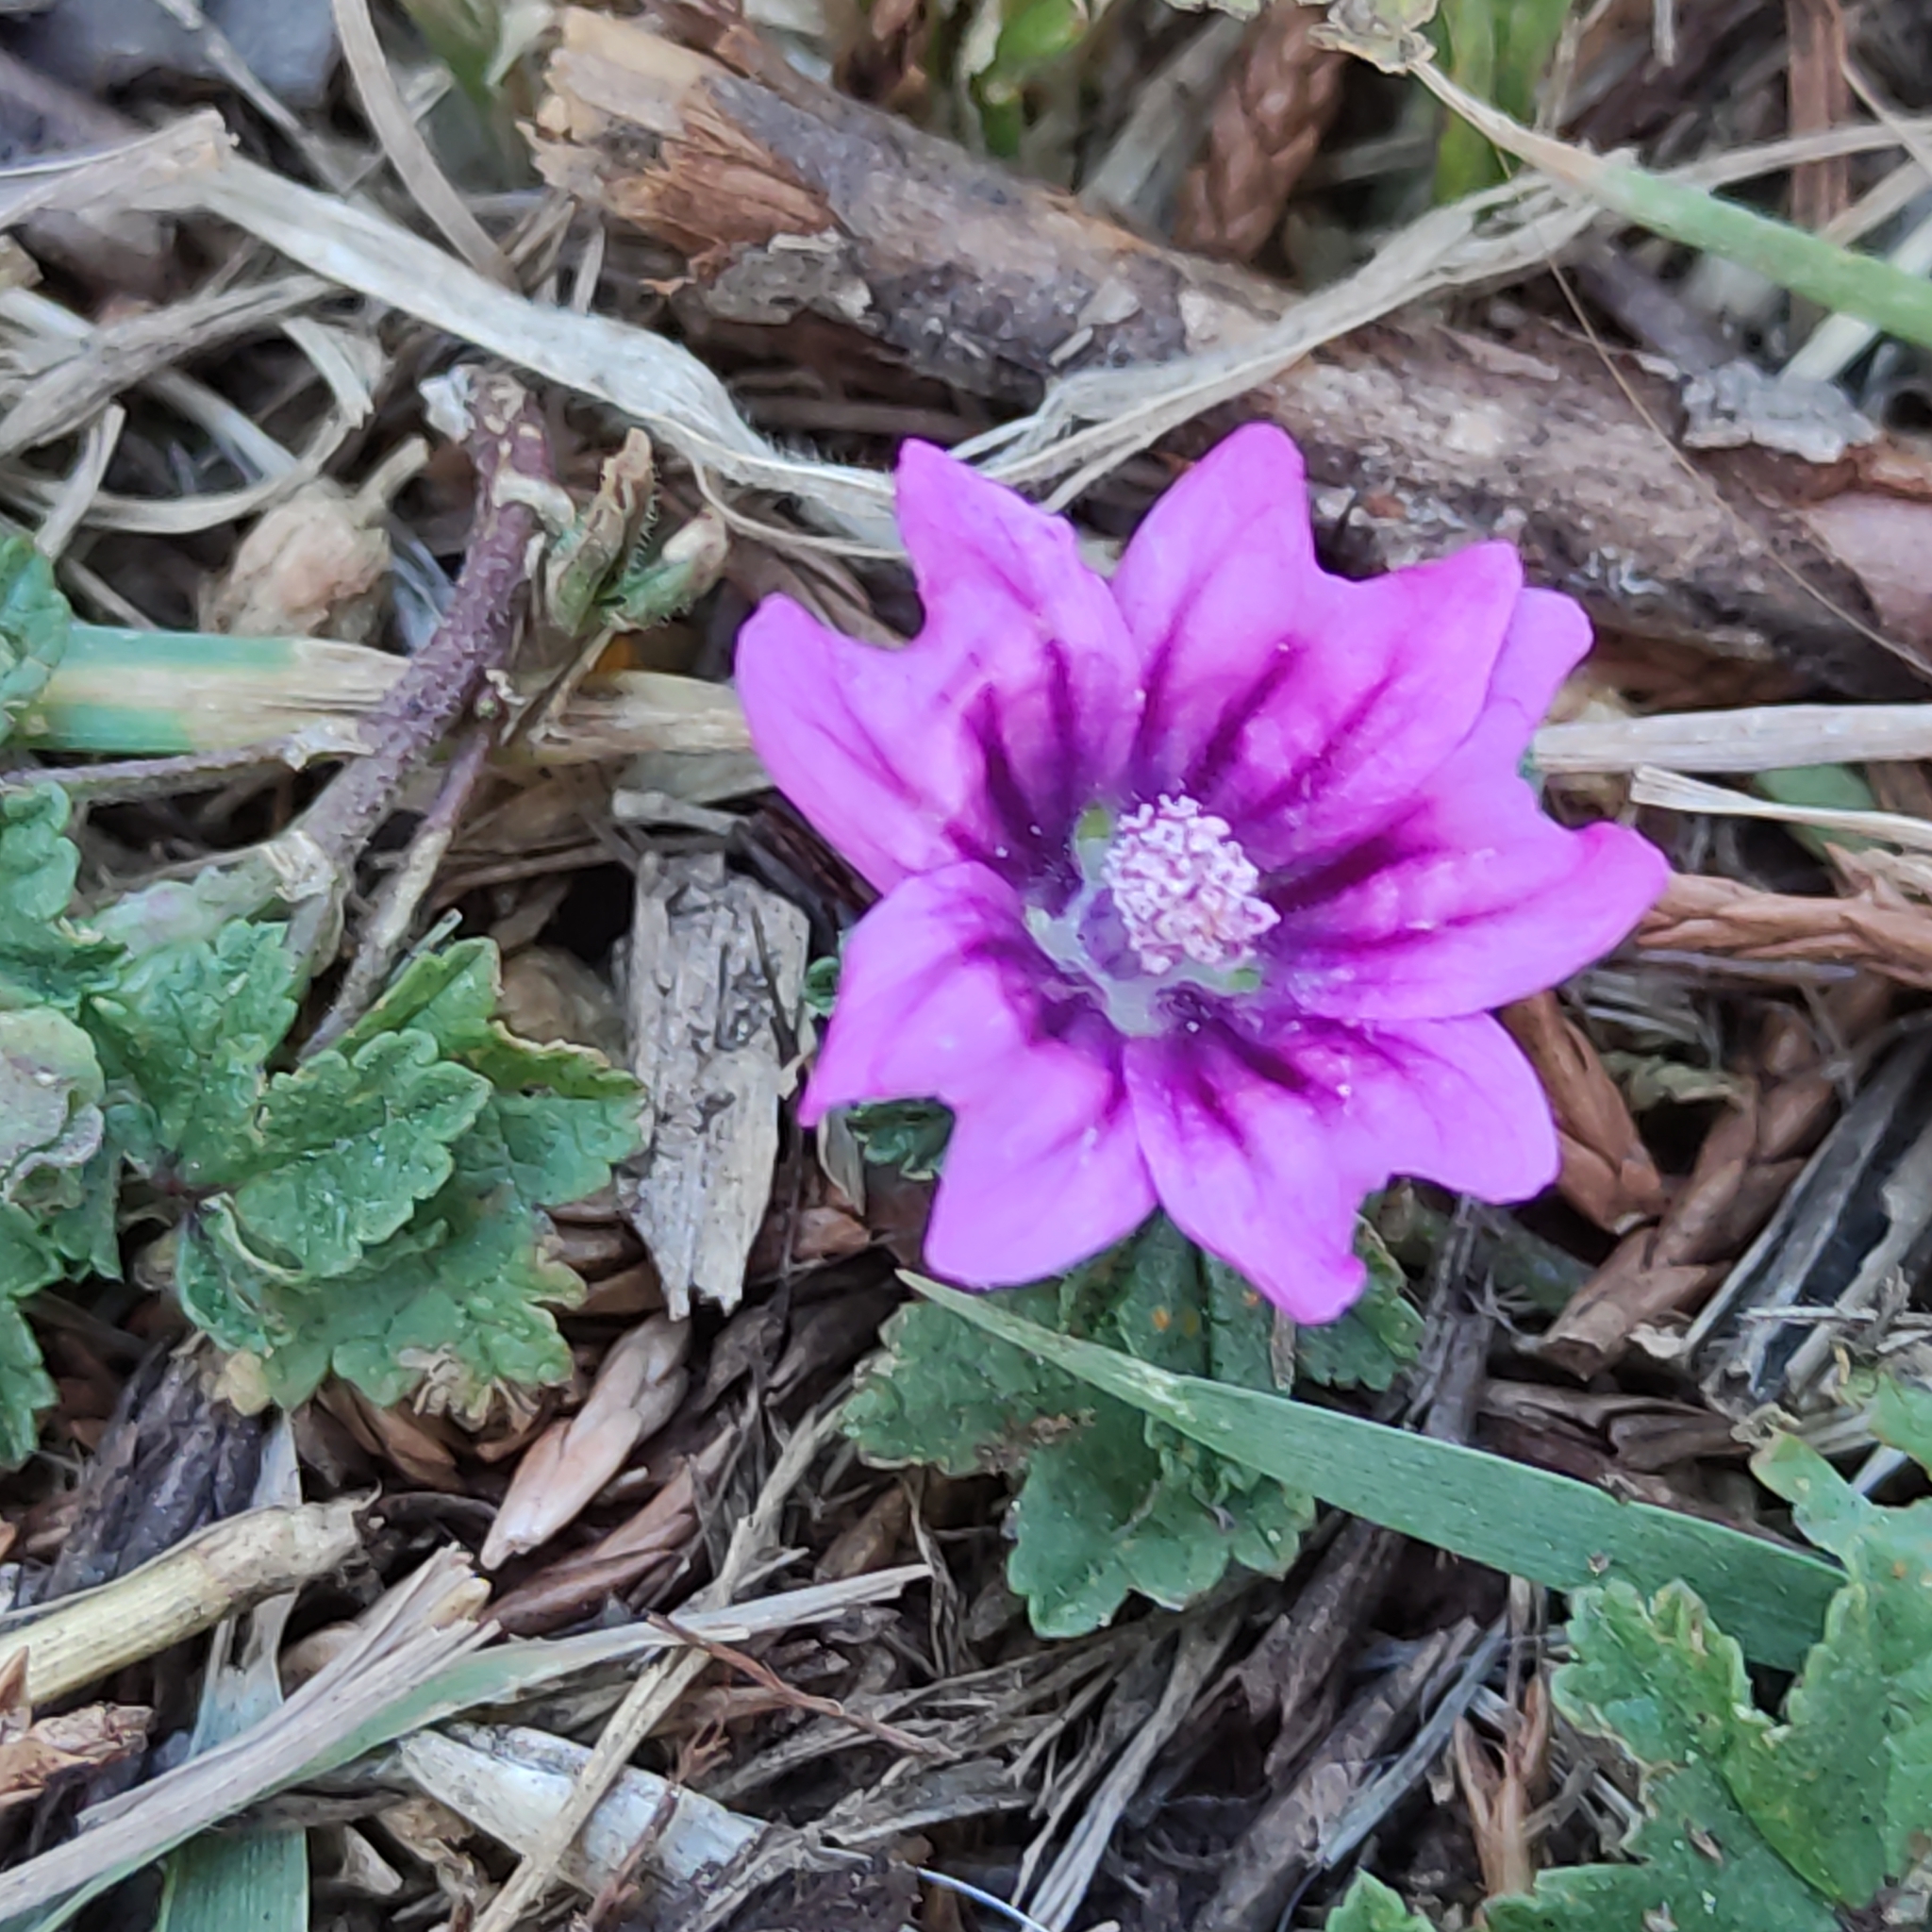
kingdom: Plantae
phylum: Tracheophyta
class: Magnoliopsida
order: Malvales
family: Malvaceae
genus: Malva
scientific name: Malva sylvestris
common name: Common mallow
